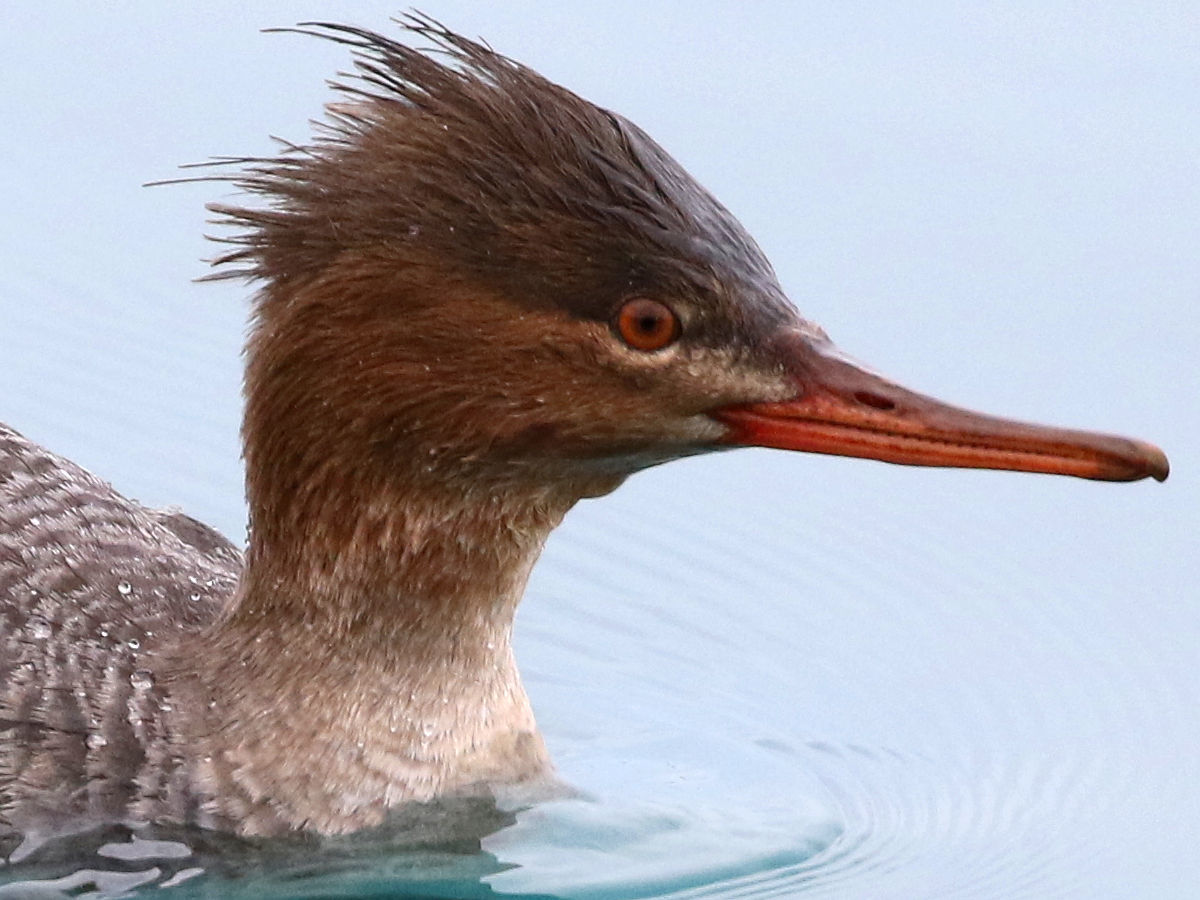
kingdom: Animalia
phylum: Chordata
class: Aves
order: Anseriformes
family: Anatidae
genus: Mergus
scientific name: Mergus serrator
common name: Red-breasted merganser
